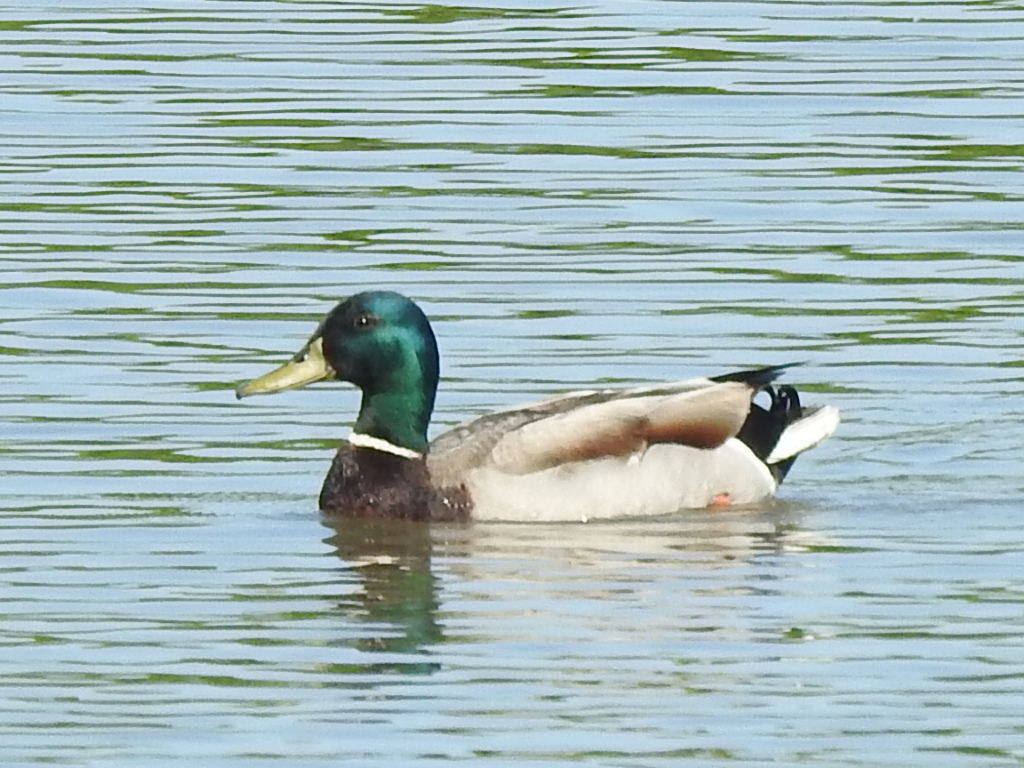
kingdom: Animalia
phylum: Chordata
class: Aves
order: Anseriformes
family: Anatidae
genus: Anas
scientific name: Anas platyrhynchos
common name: Mallard
